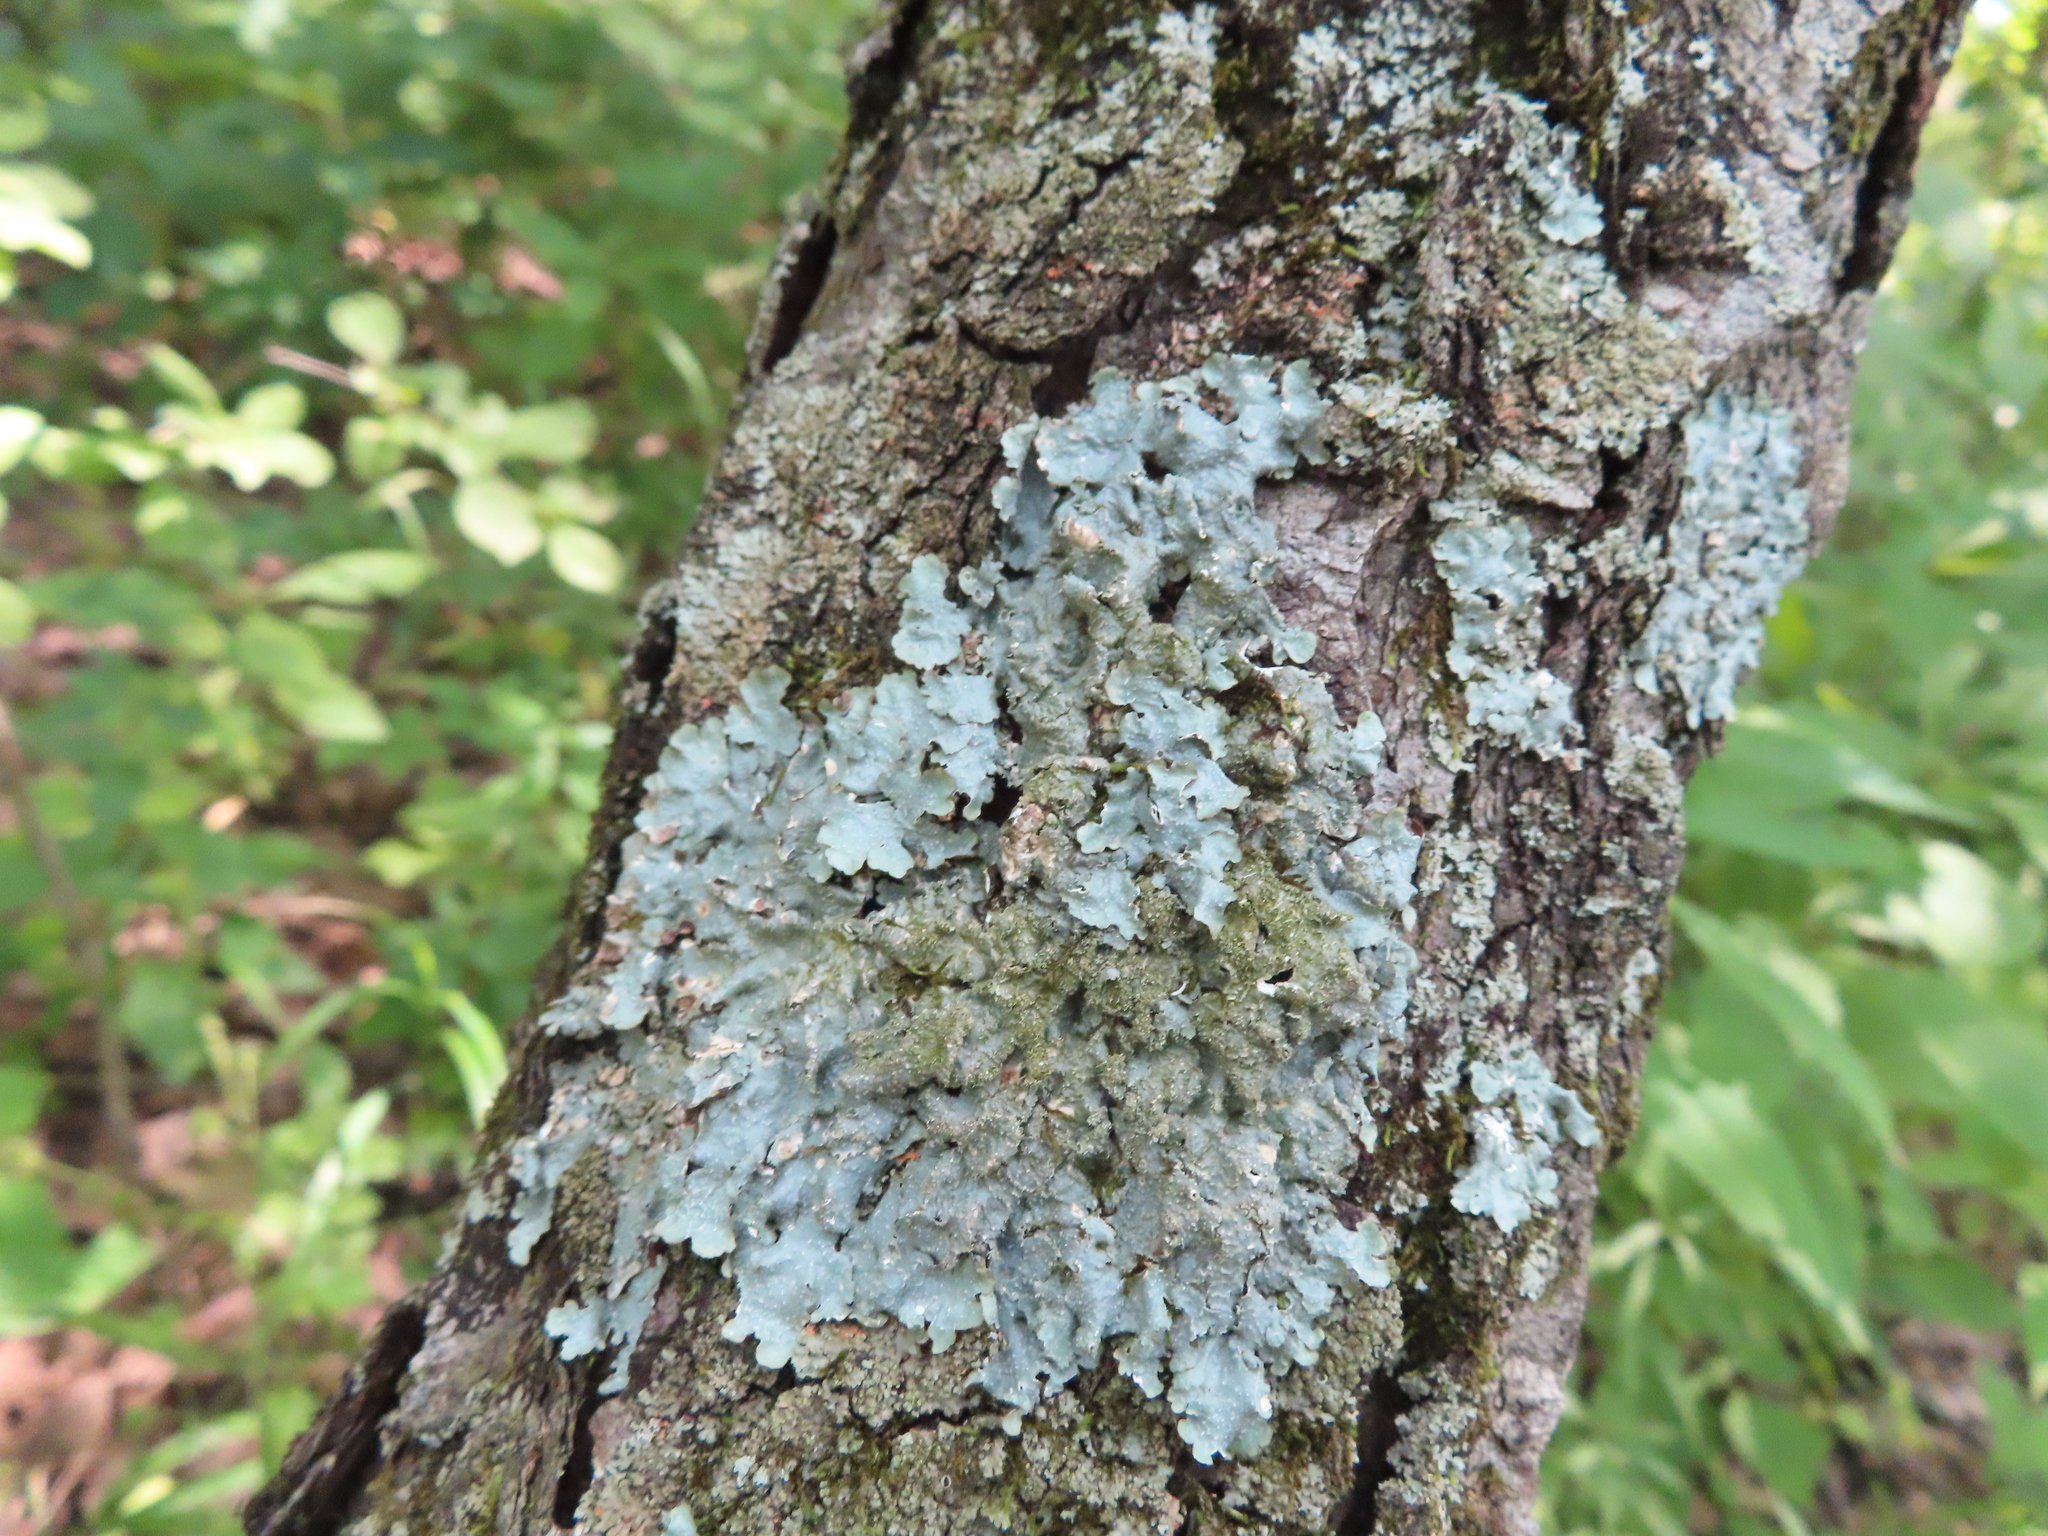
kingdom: Fungi
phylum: Ascomycota
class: Lecanoromycetes
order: Lecanorales
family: Parmeliaceae
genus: Punctelia
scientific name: Punctelia rudecta
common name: Rough speckled shield lichen
